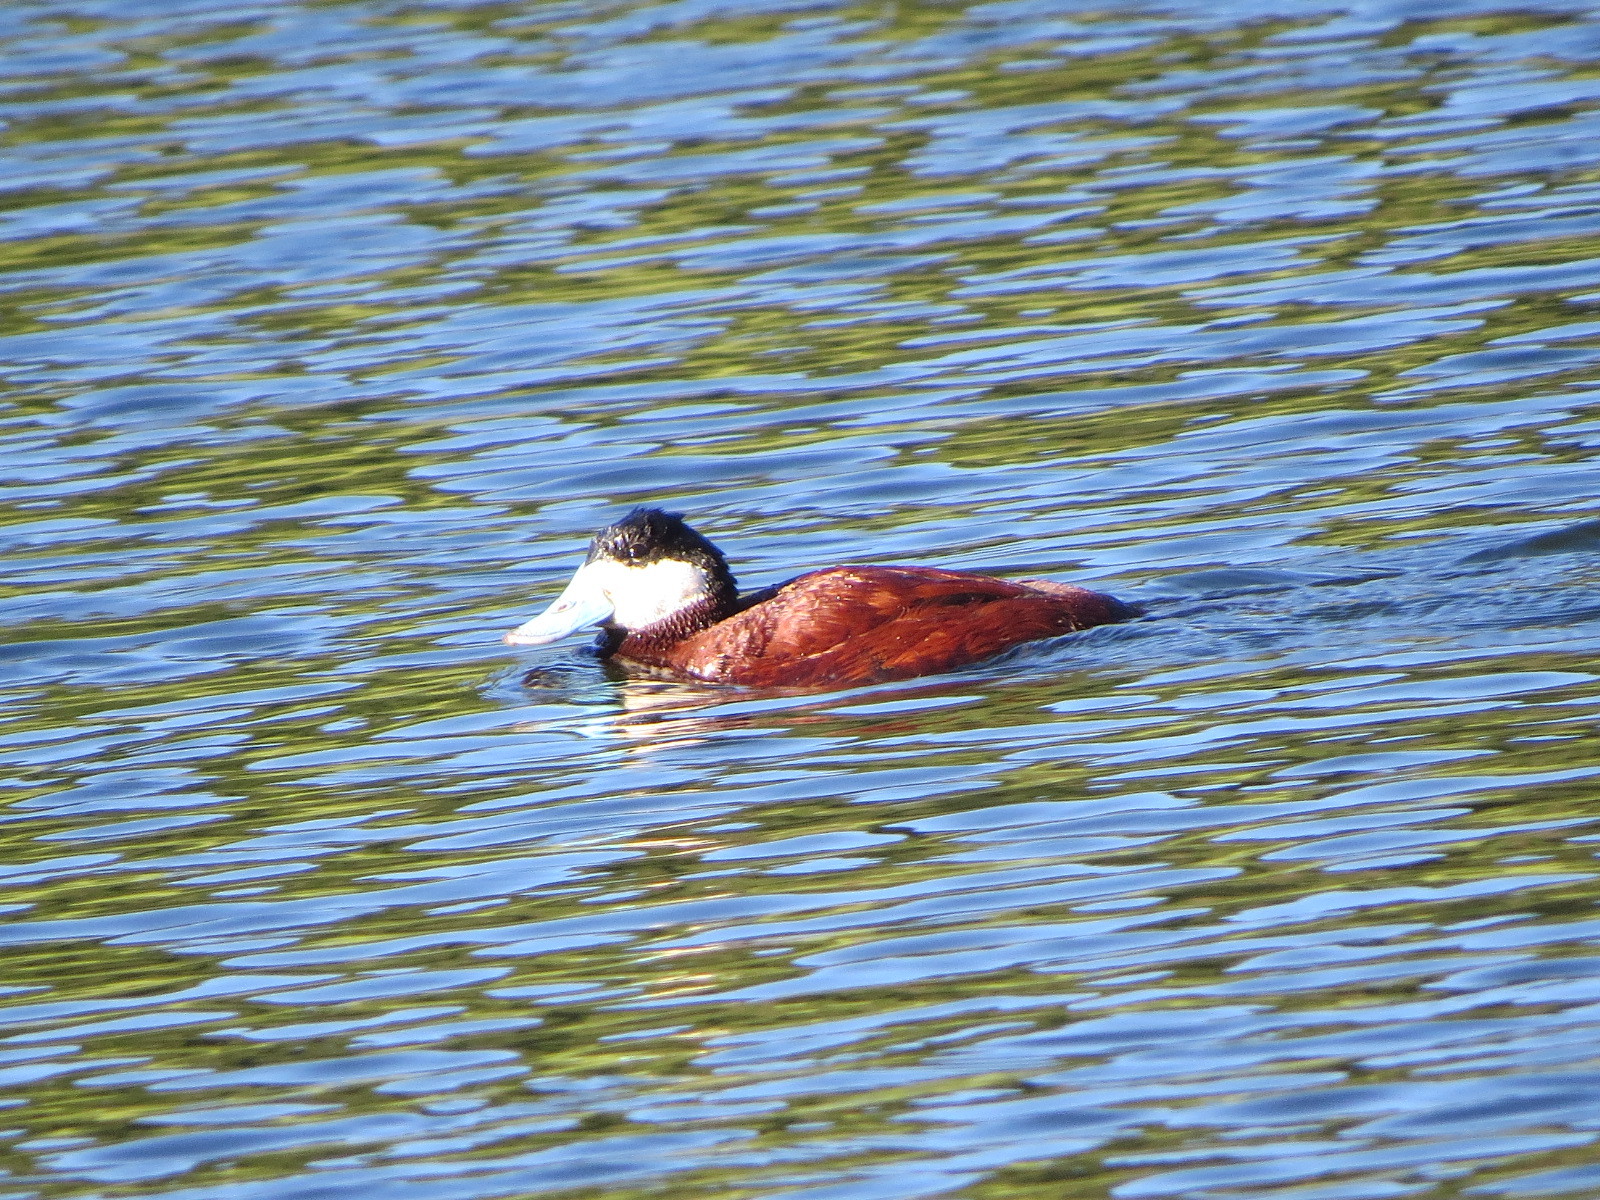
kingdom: Animalia
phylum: Chordata
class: Aves
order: Anseriformes
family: Anatidae
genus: Oxyura
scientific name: Oxyura jamaicensis
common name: Ruddy duck
